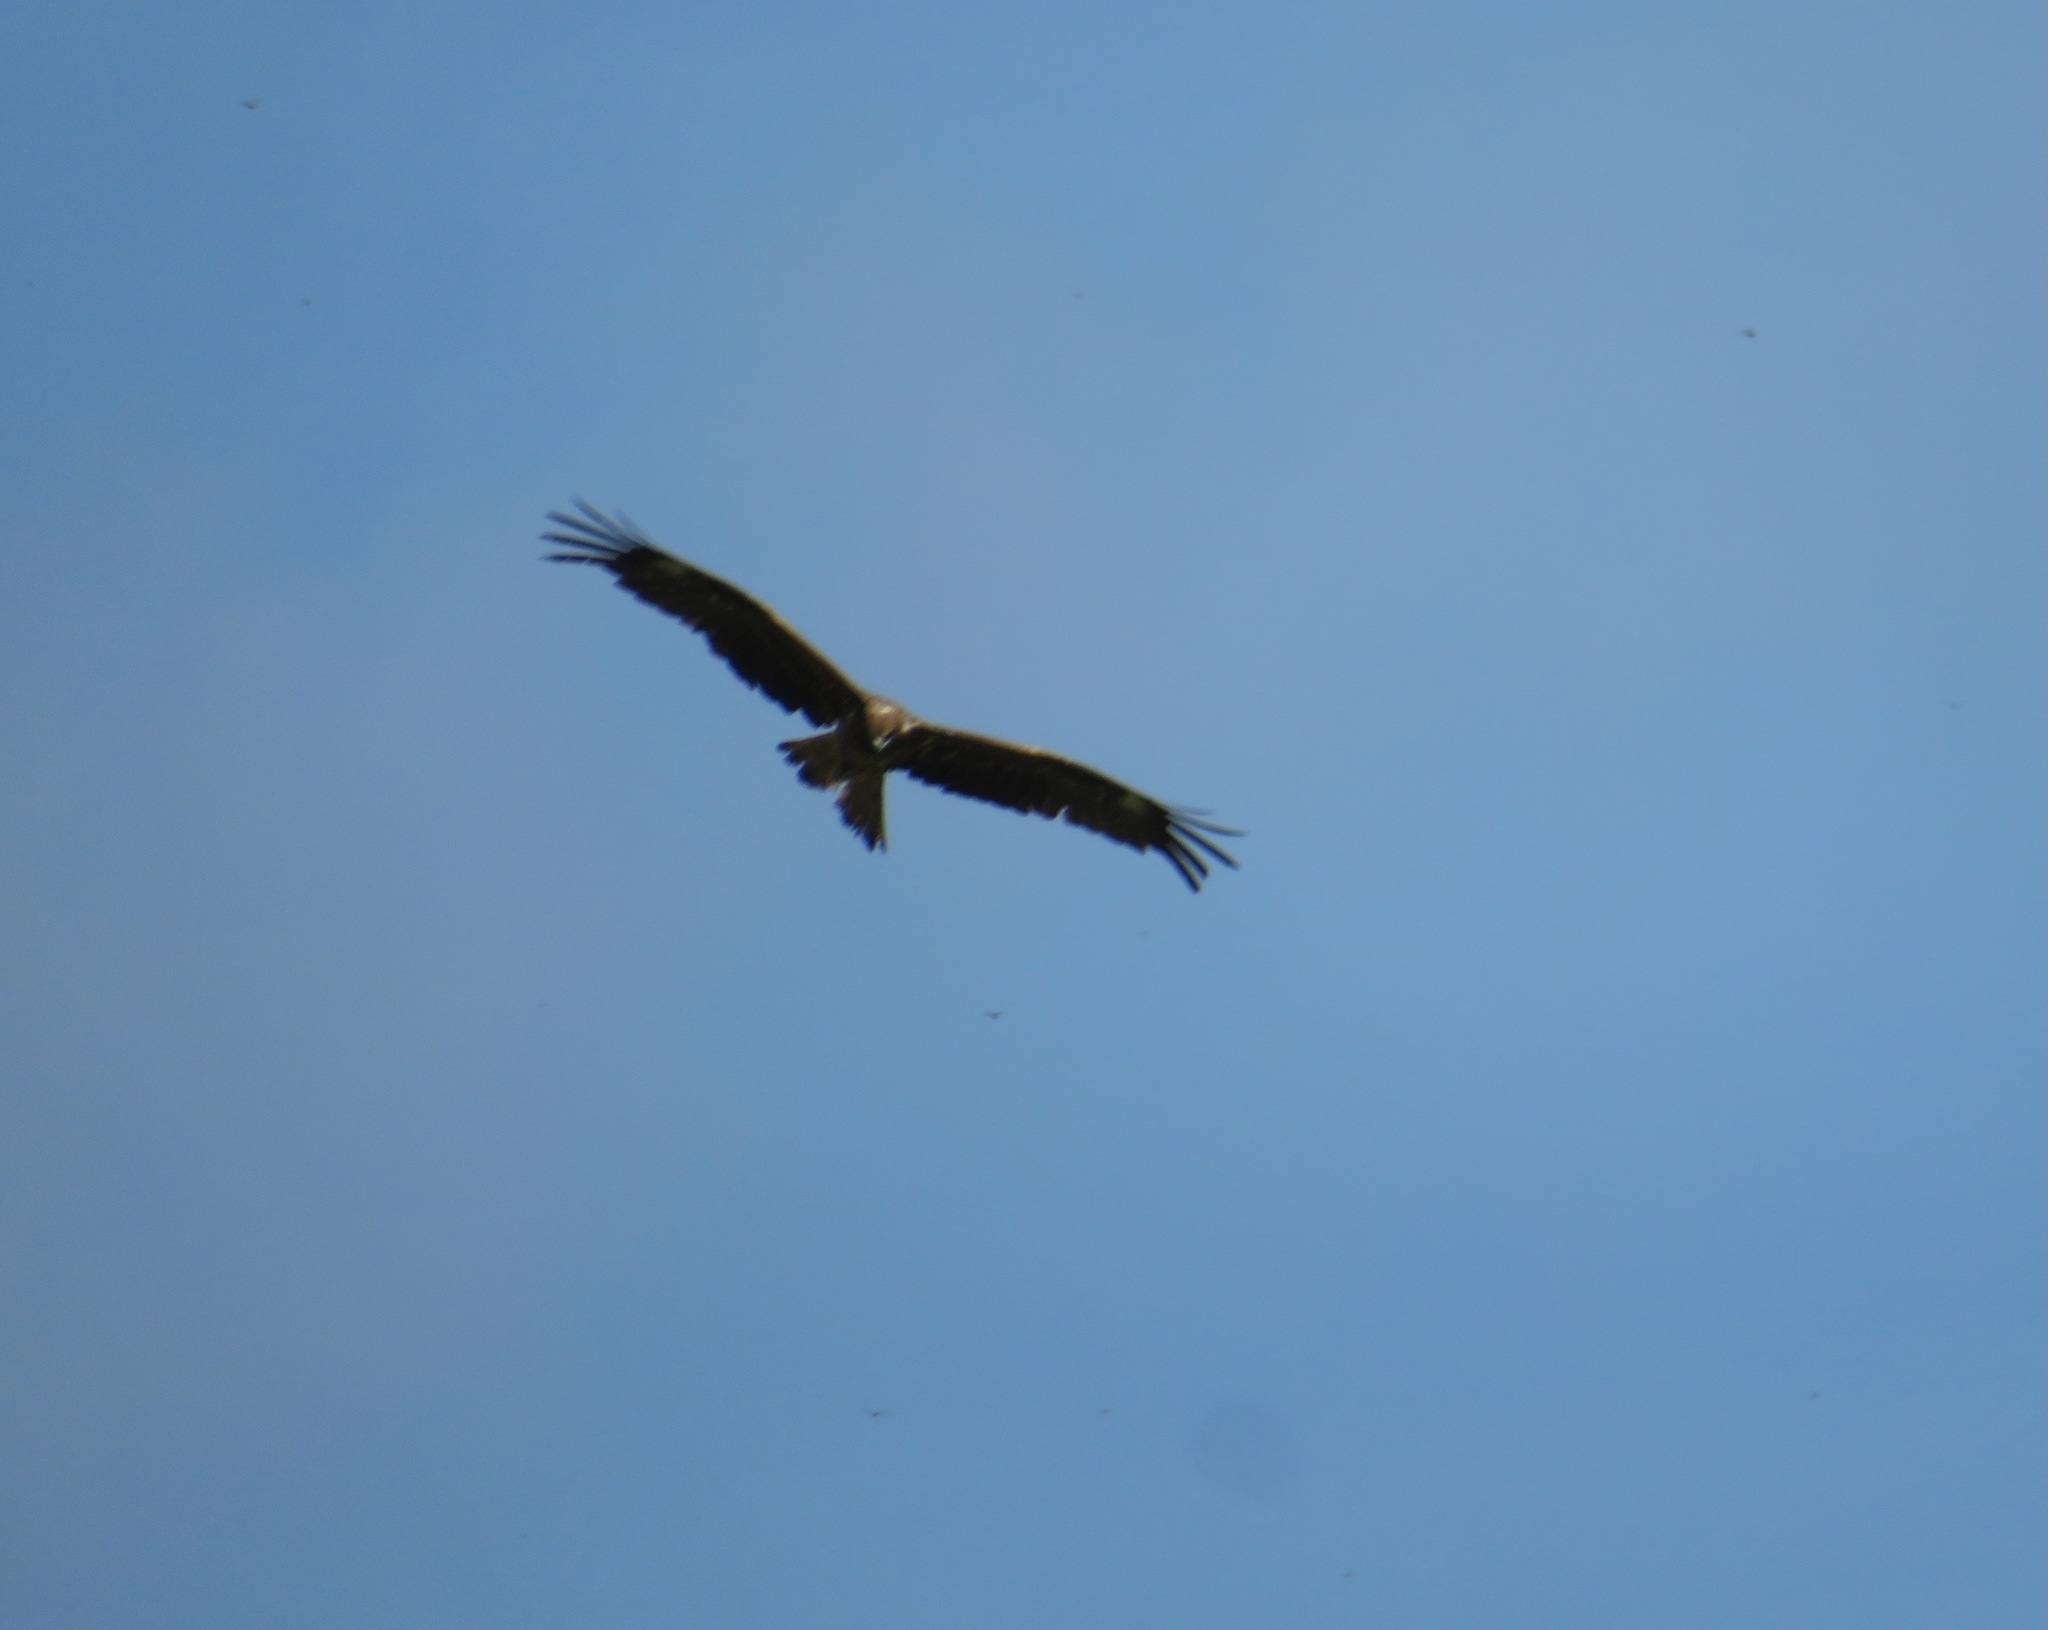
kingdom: Animalia
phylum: Chordata
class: Aves
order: Accipitriformes
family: Accipitridae
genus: Milvus
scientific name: Milvus migrans
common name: Black kite
